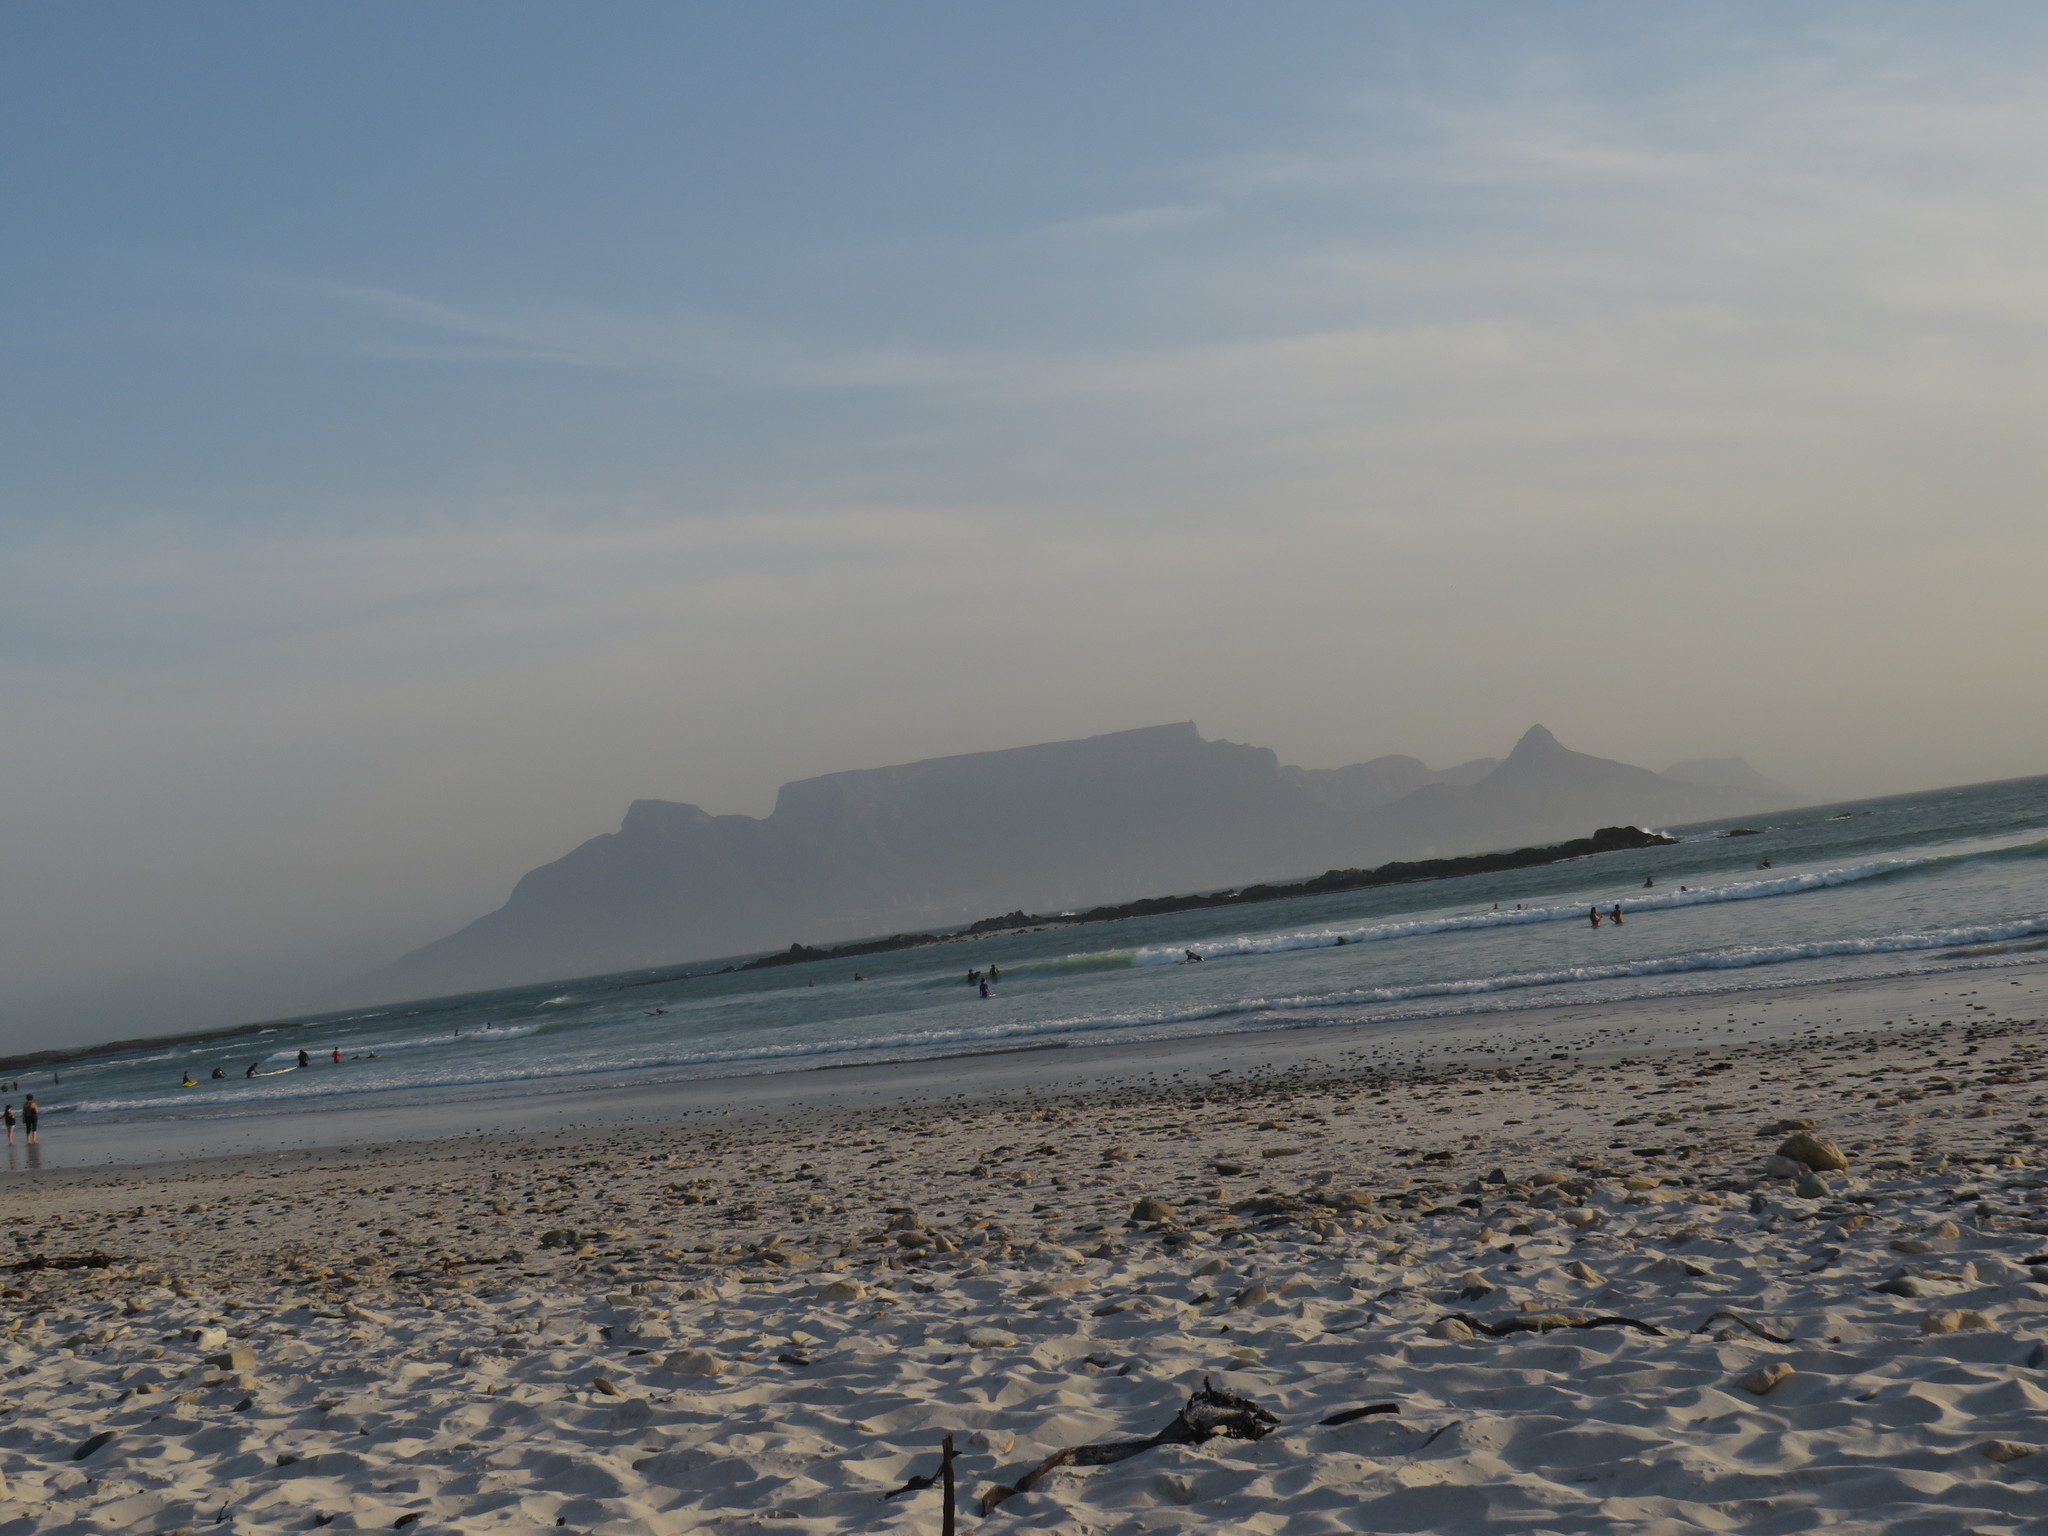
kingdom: Chromista
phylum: Ochrophyta
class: Phaeophyceae
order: Laminariales
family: Lessoniaceae
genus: Ecklonia
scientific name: Ecklonia
